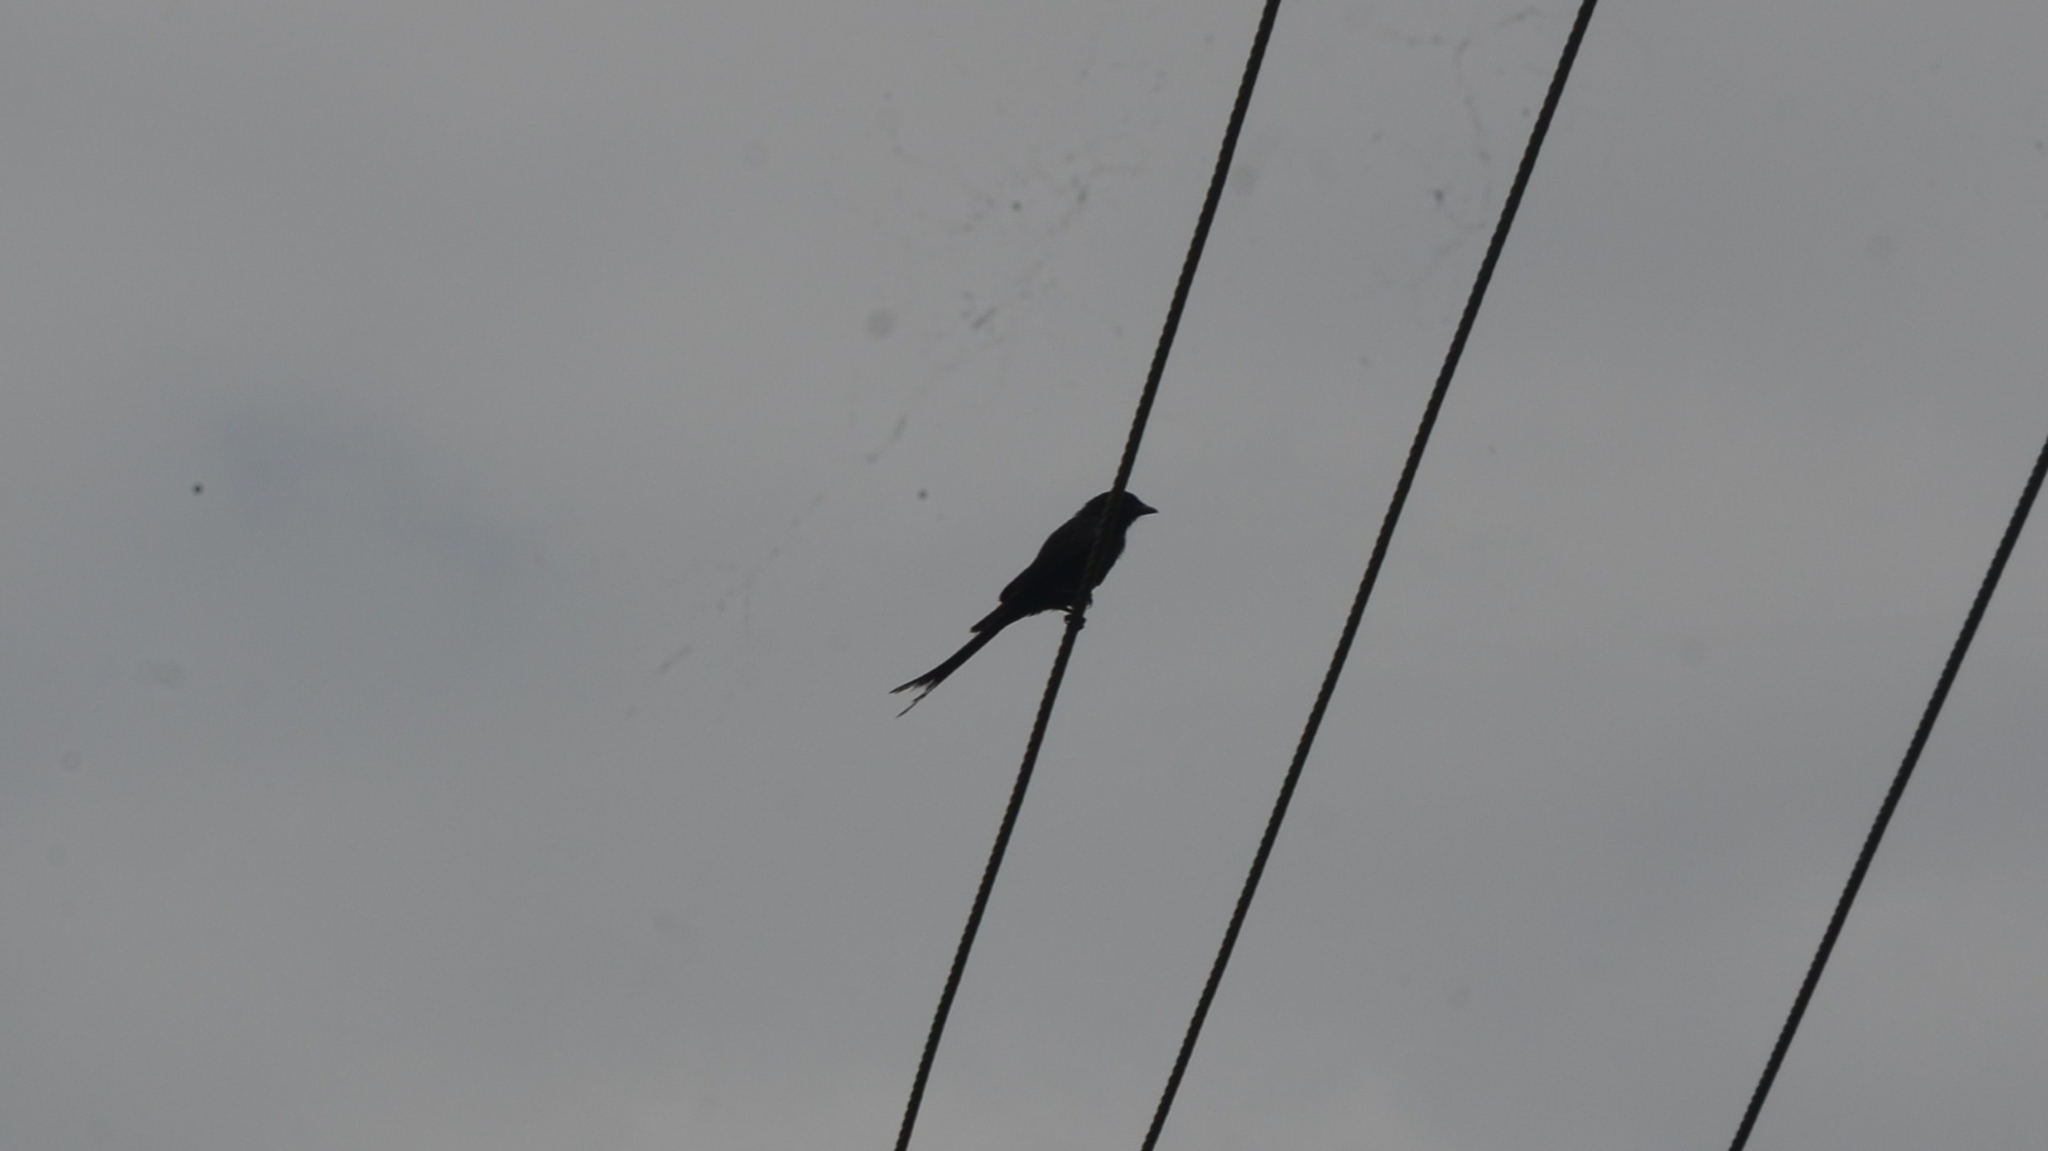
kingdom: Animalia
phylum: Chordata
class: Aves
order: Passeriformes
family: Dicruridae
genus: Dicrurus
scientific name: Dicrurus macrocercus
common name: Black drongo
